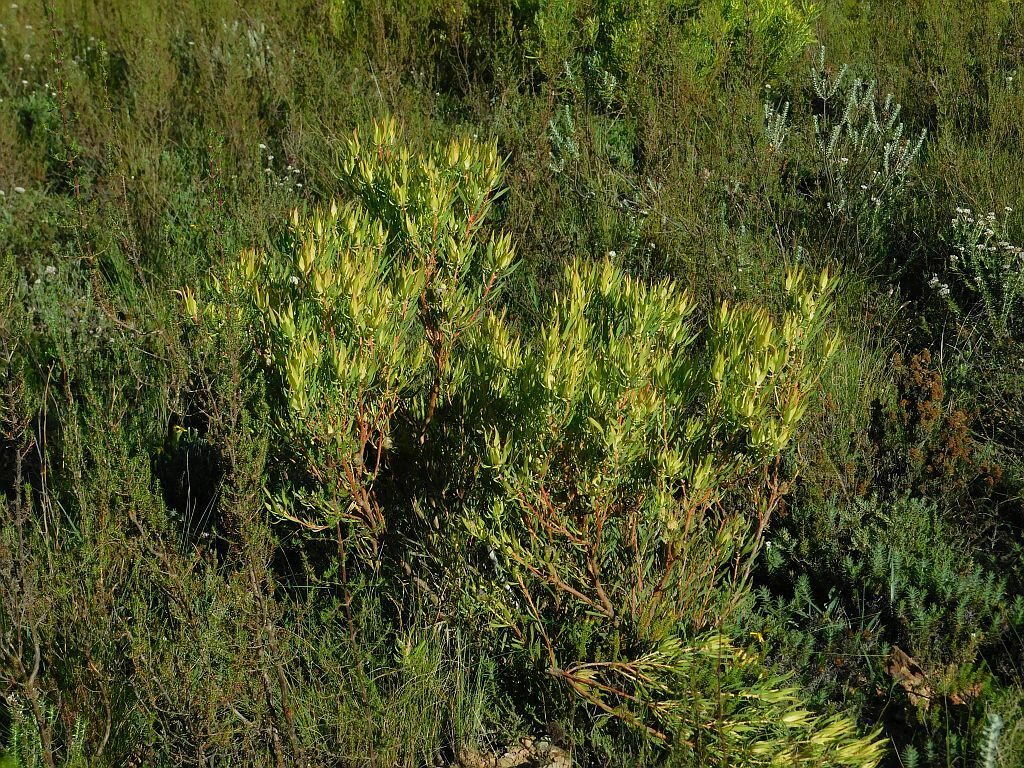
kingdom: Plantae
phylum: Tracheophyta
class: Magnoliopsida
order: Proteales
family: Proteaceae
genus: Leucadendron
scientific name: Leucadendron salignum
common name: Common sunshine conebush
